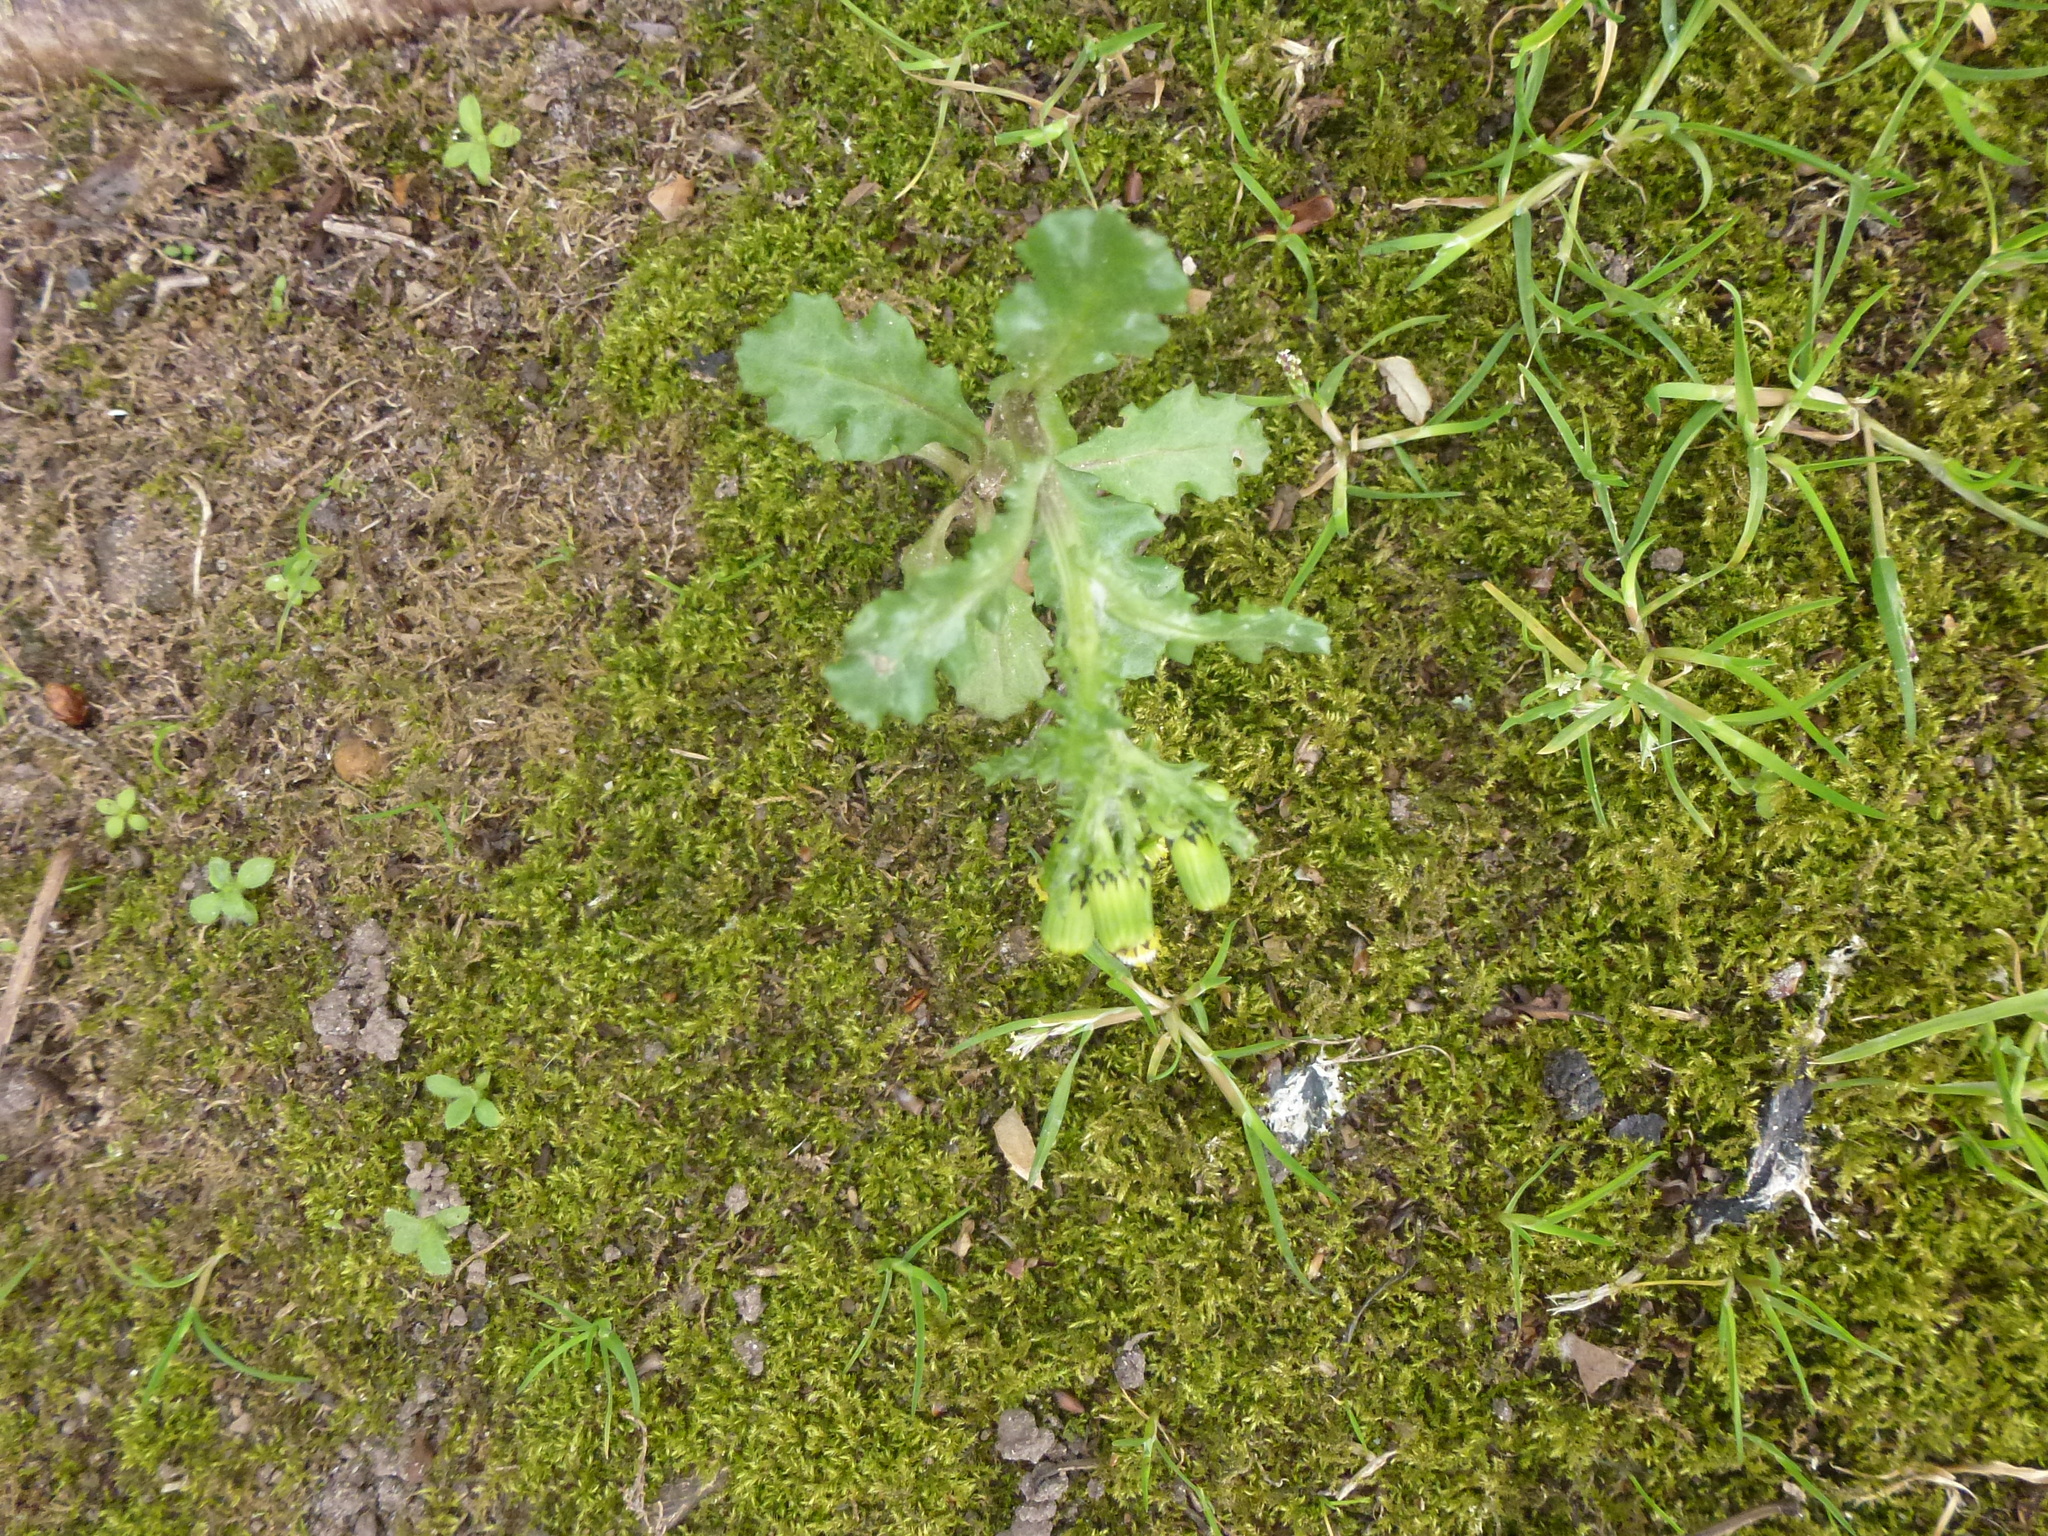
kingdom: Plantae
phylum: Tracheophyta
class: Magnoliopsida
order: Asterales
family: Asteraceae
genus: Senecio
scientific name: Senecio vulgaris
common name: Old-man-in-the-spring
